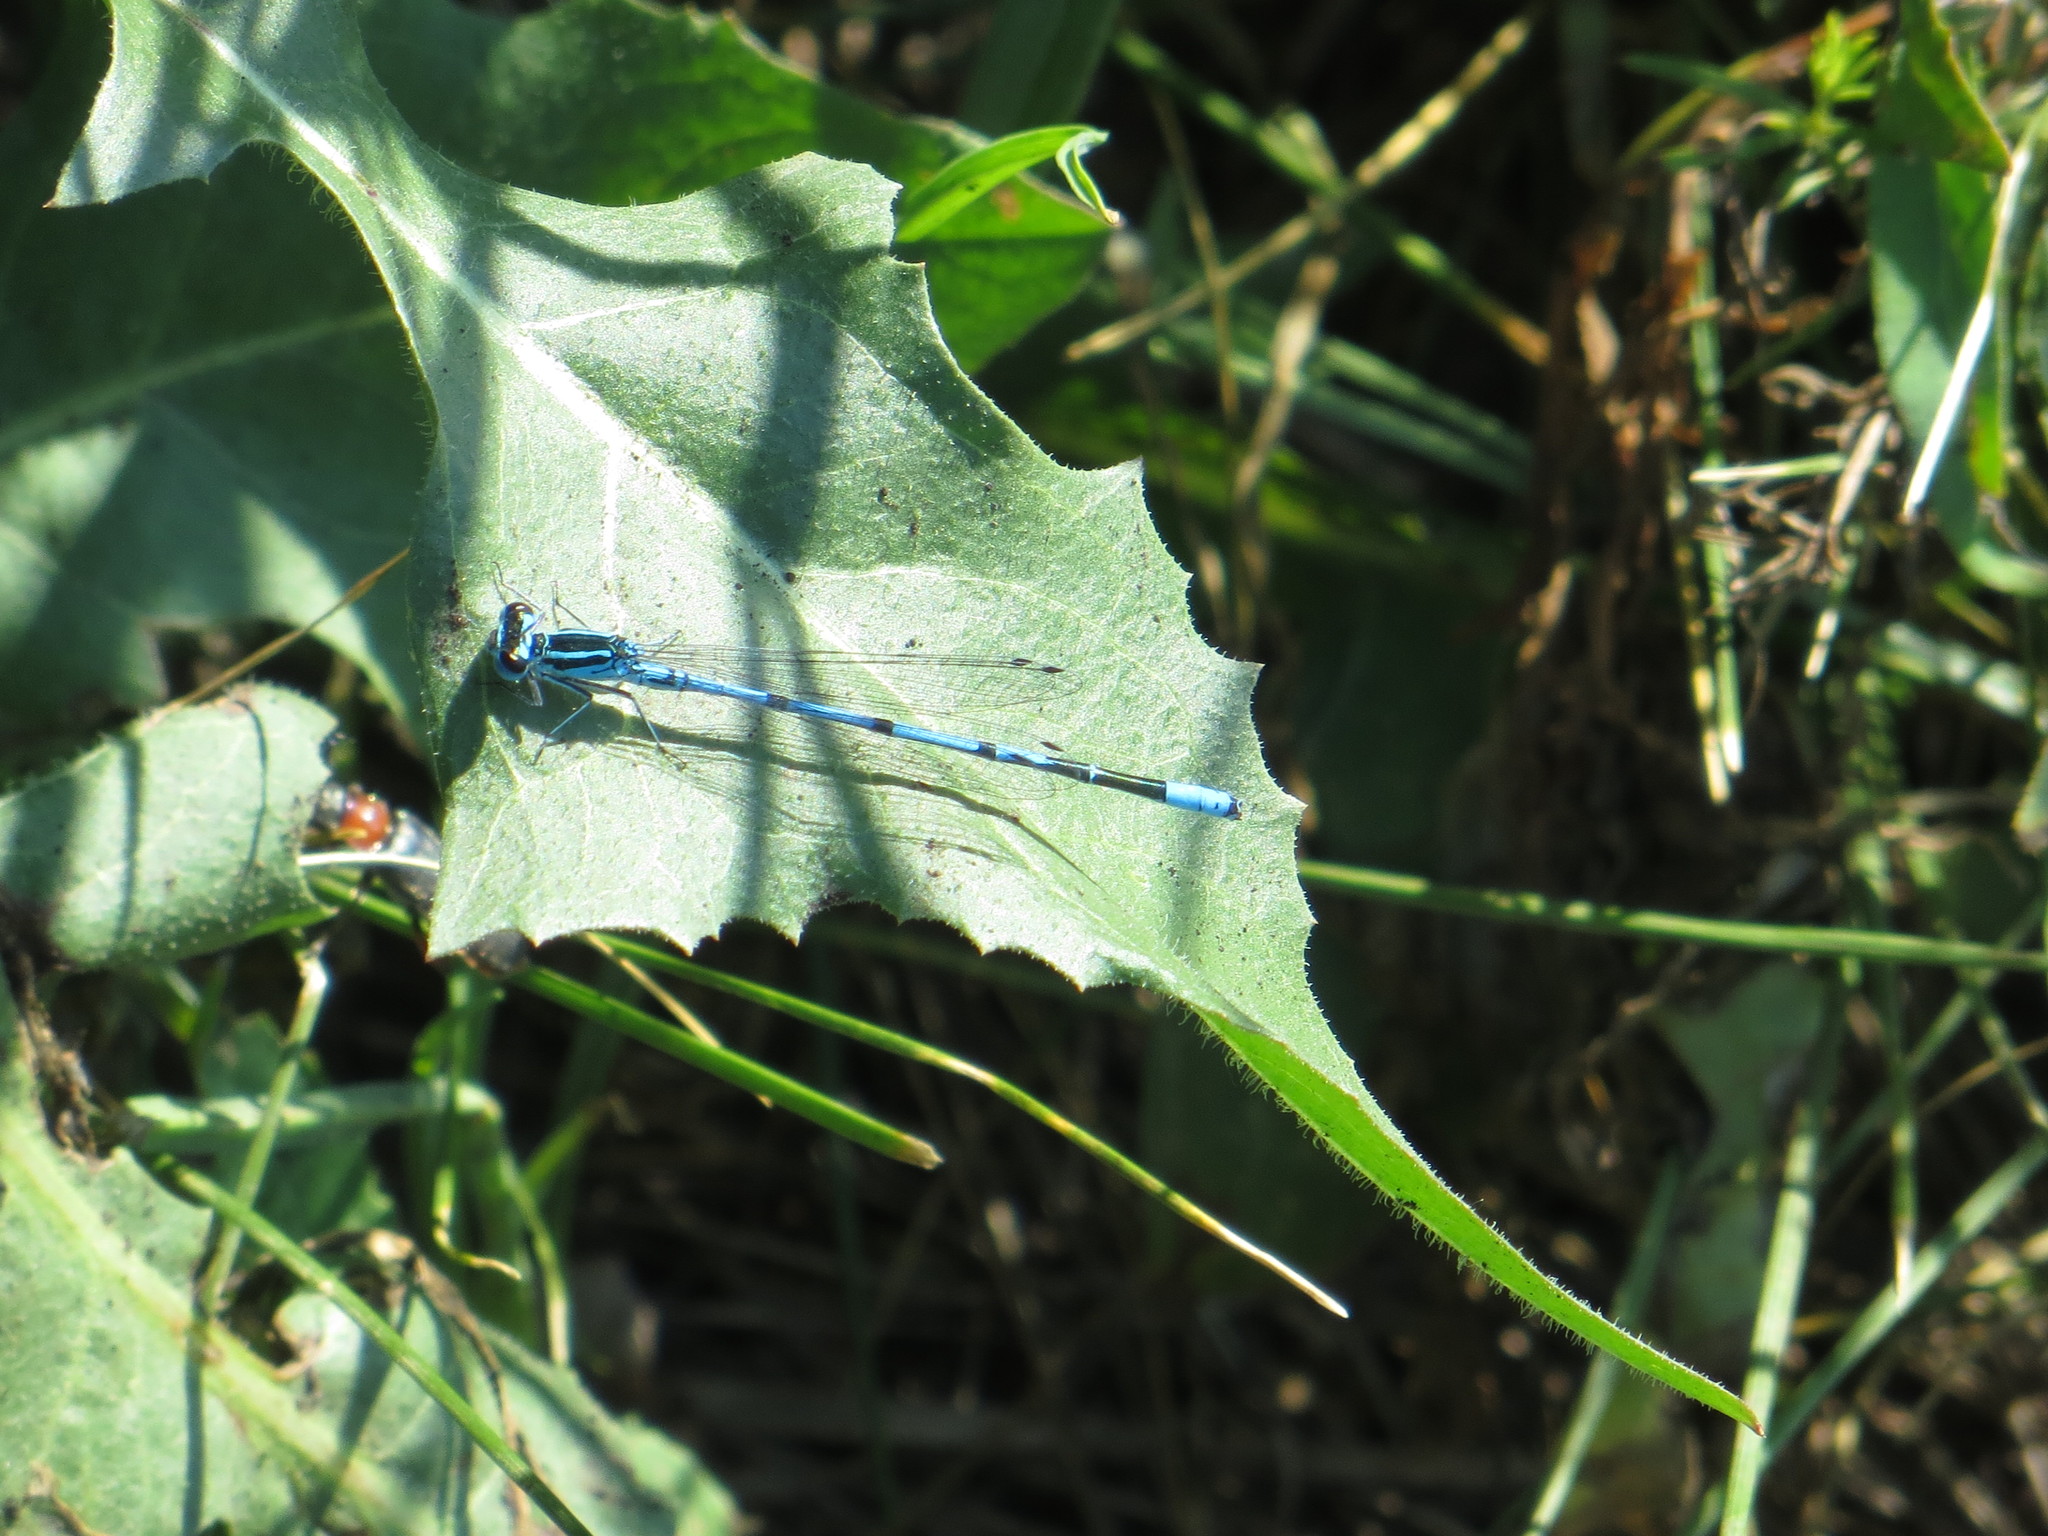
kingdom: Animalia
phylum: Arthropoda
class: Insecta
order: Odonata
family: Coenagrionidae
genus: Coenagrion
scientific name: Coenagrion puella
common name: Azure damselfly
